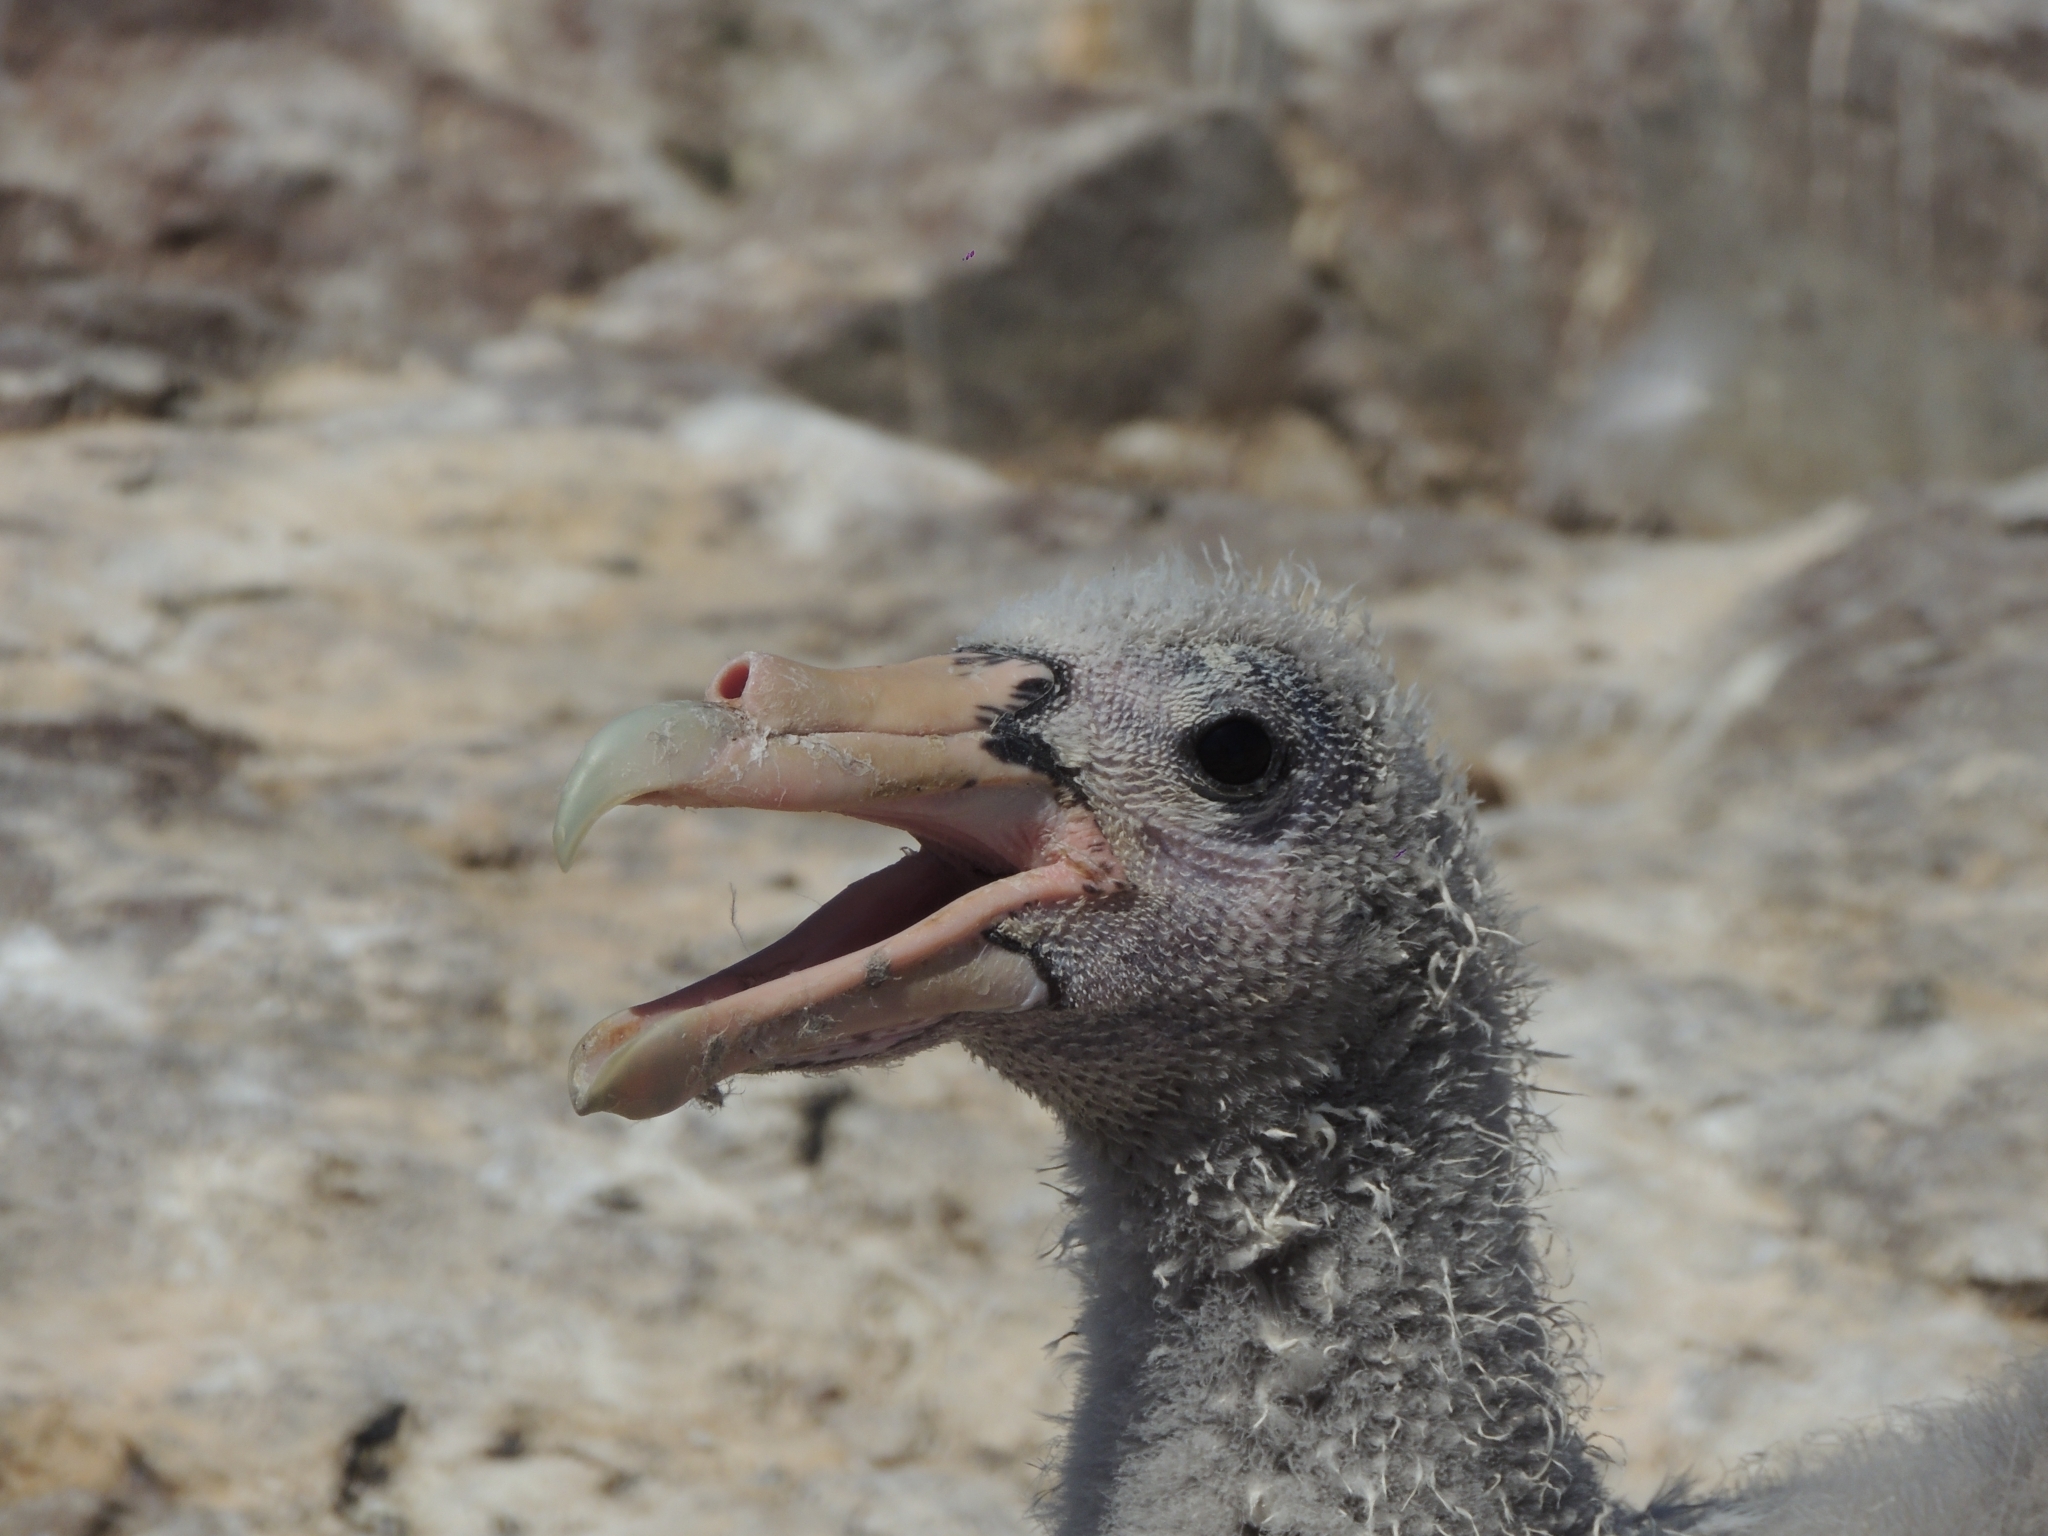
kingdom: Animalia
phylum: Chordata
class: Aves
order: Procellariiformes
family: Procellariidae
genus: Macronectes
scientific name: Macronectes giganteus
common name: Southern giant petrel
